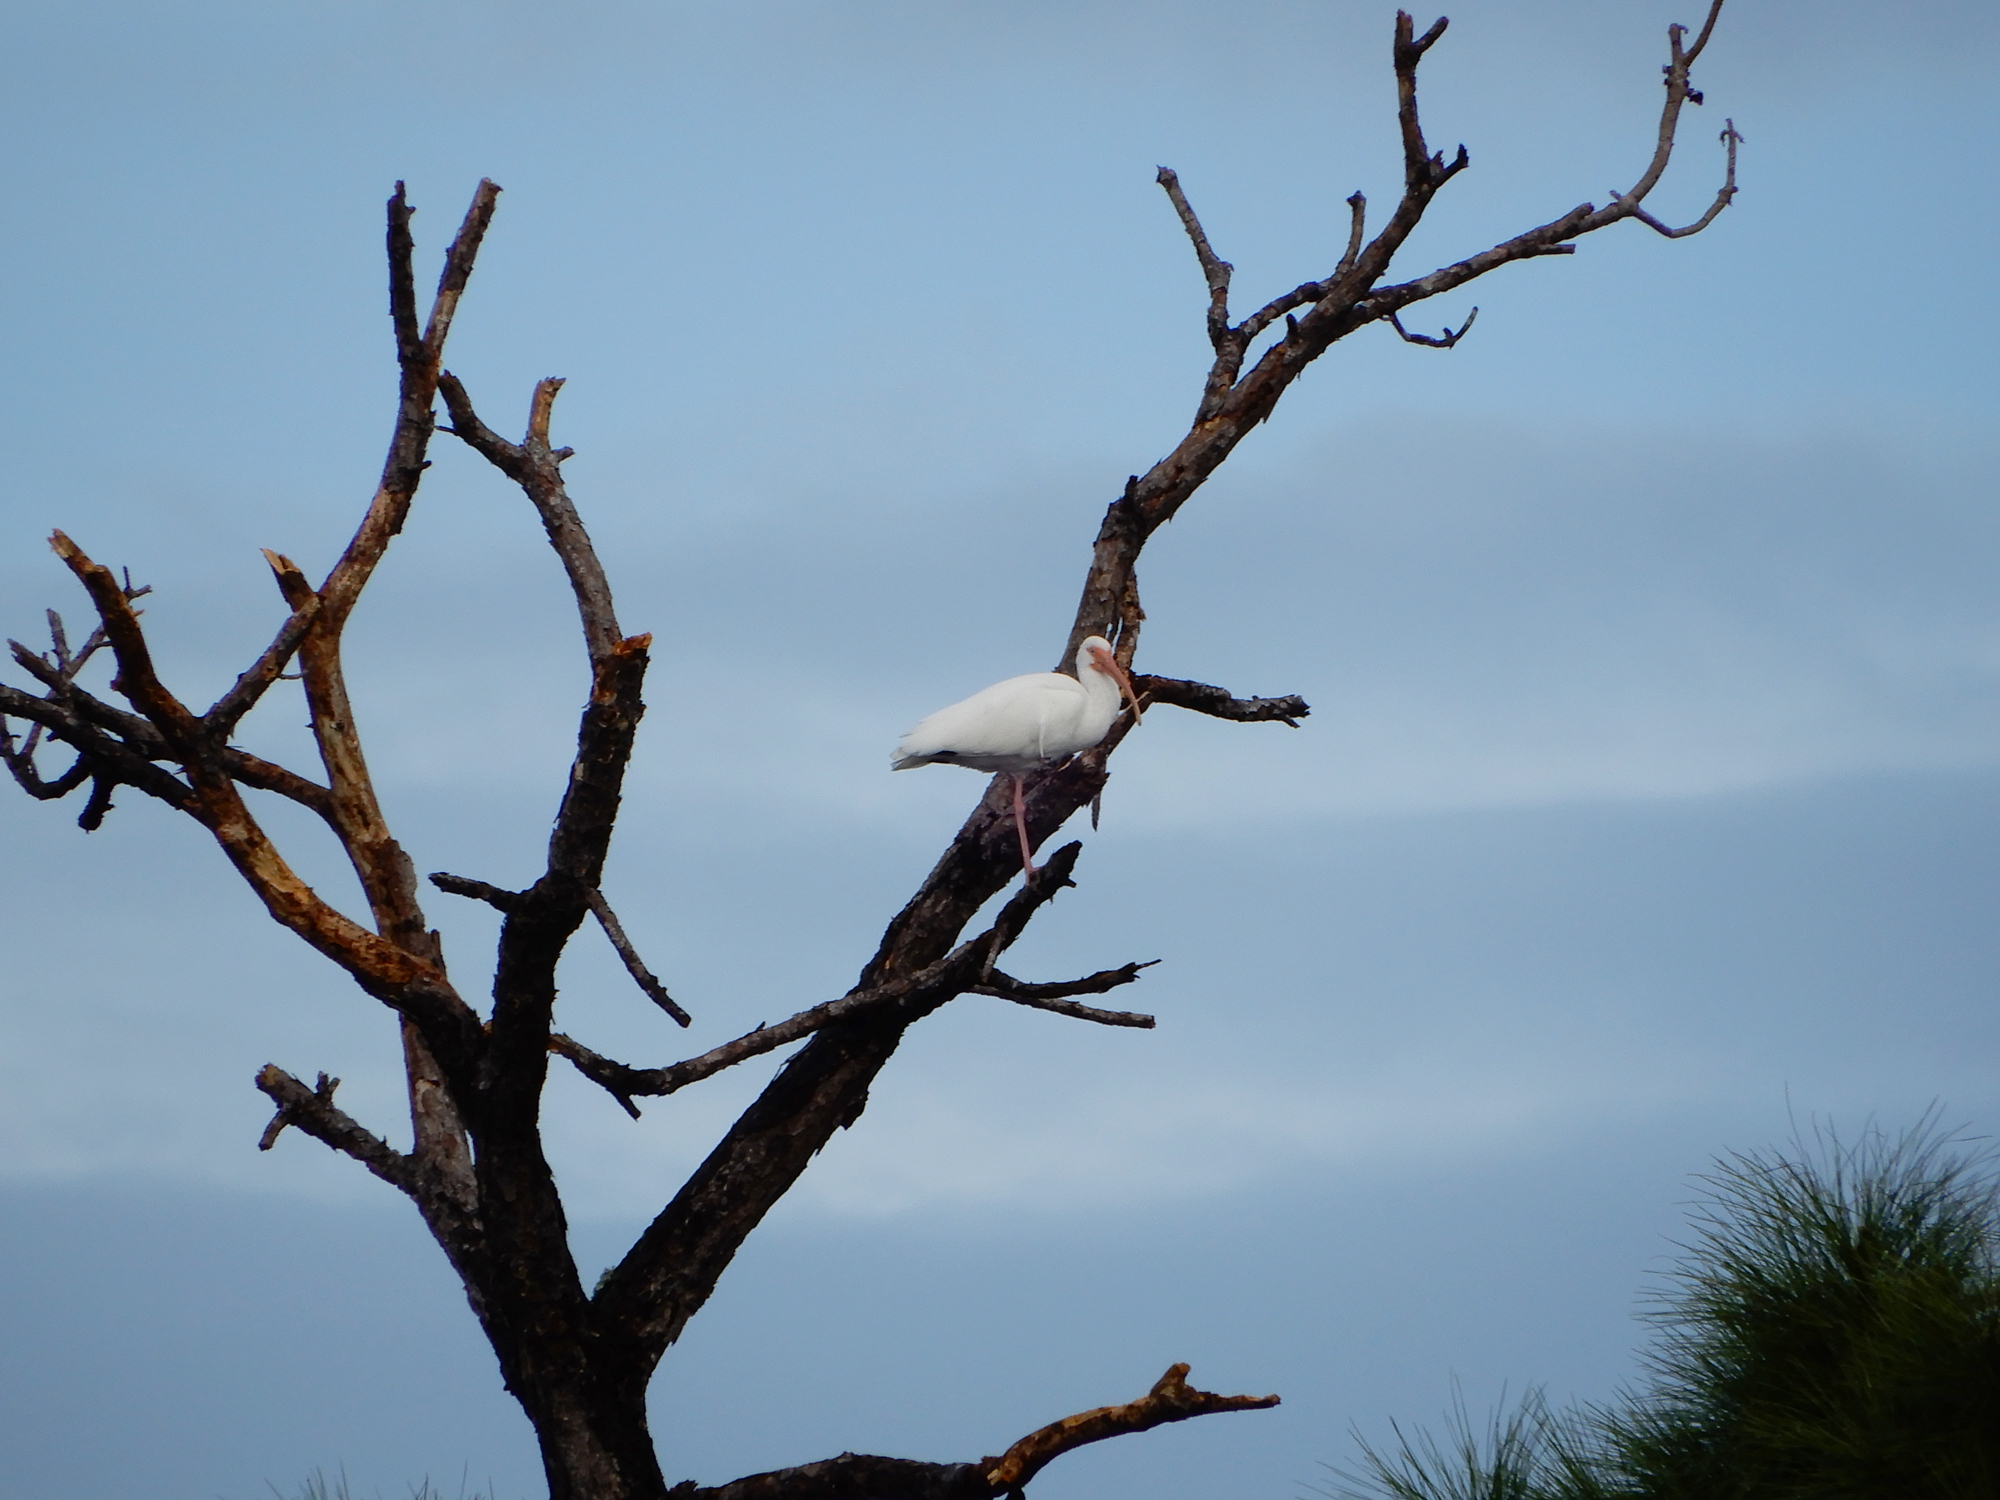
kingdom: Animalia
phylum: Chordata
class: Aves
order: Pelecaniformes
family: Threskiornithidae
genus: Eudocimus
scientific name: Eudocimus albus
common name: White ibis
